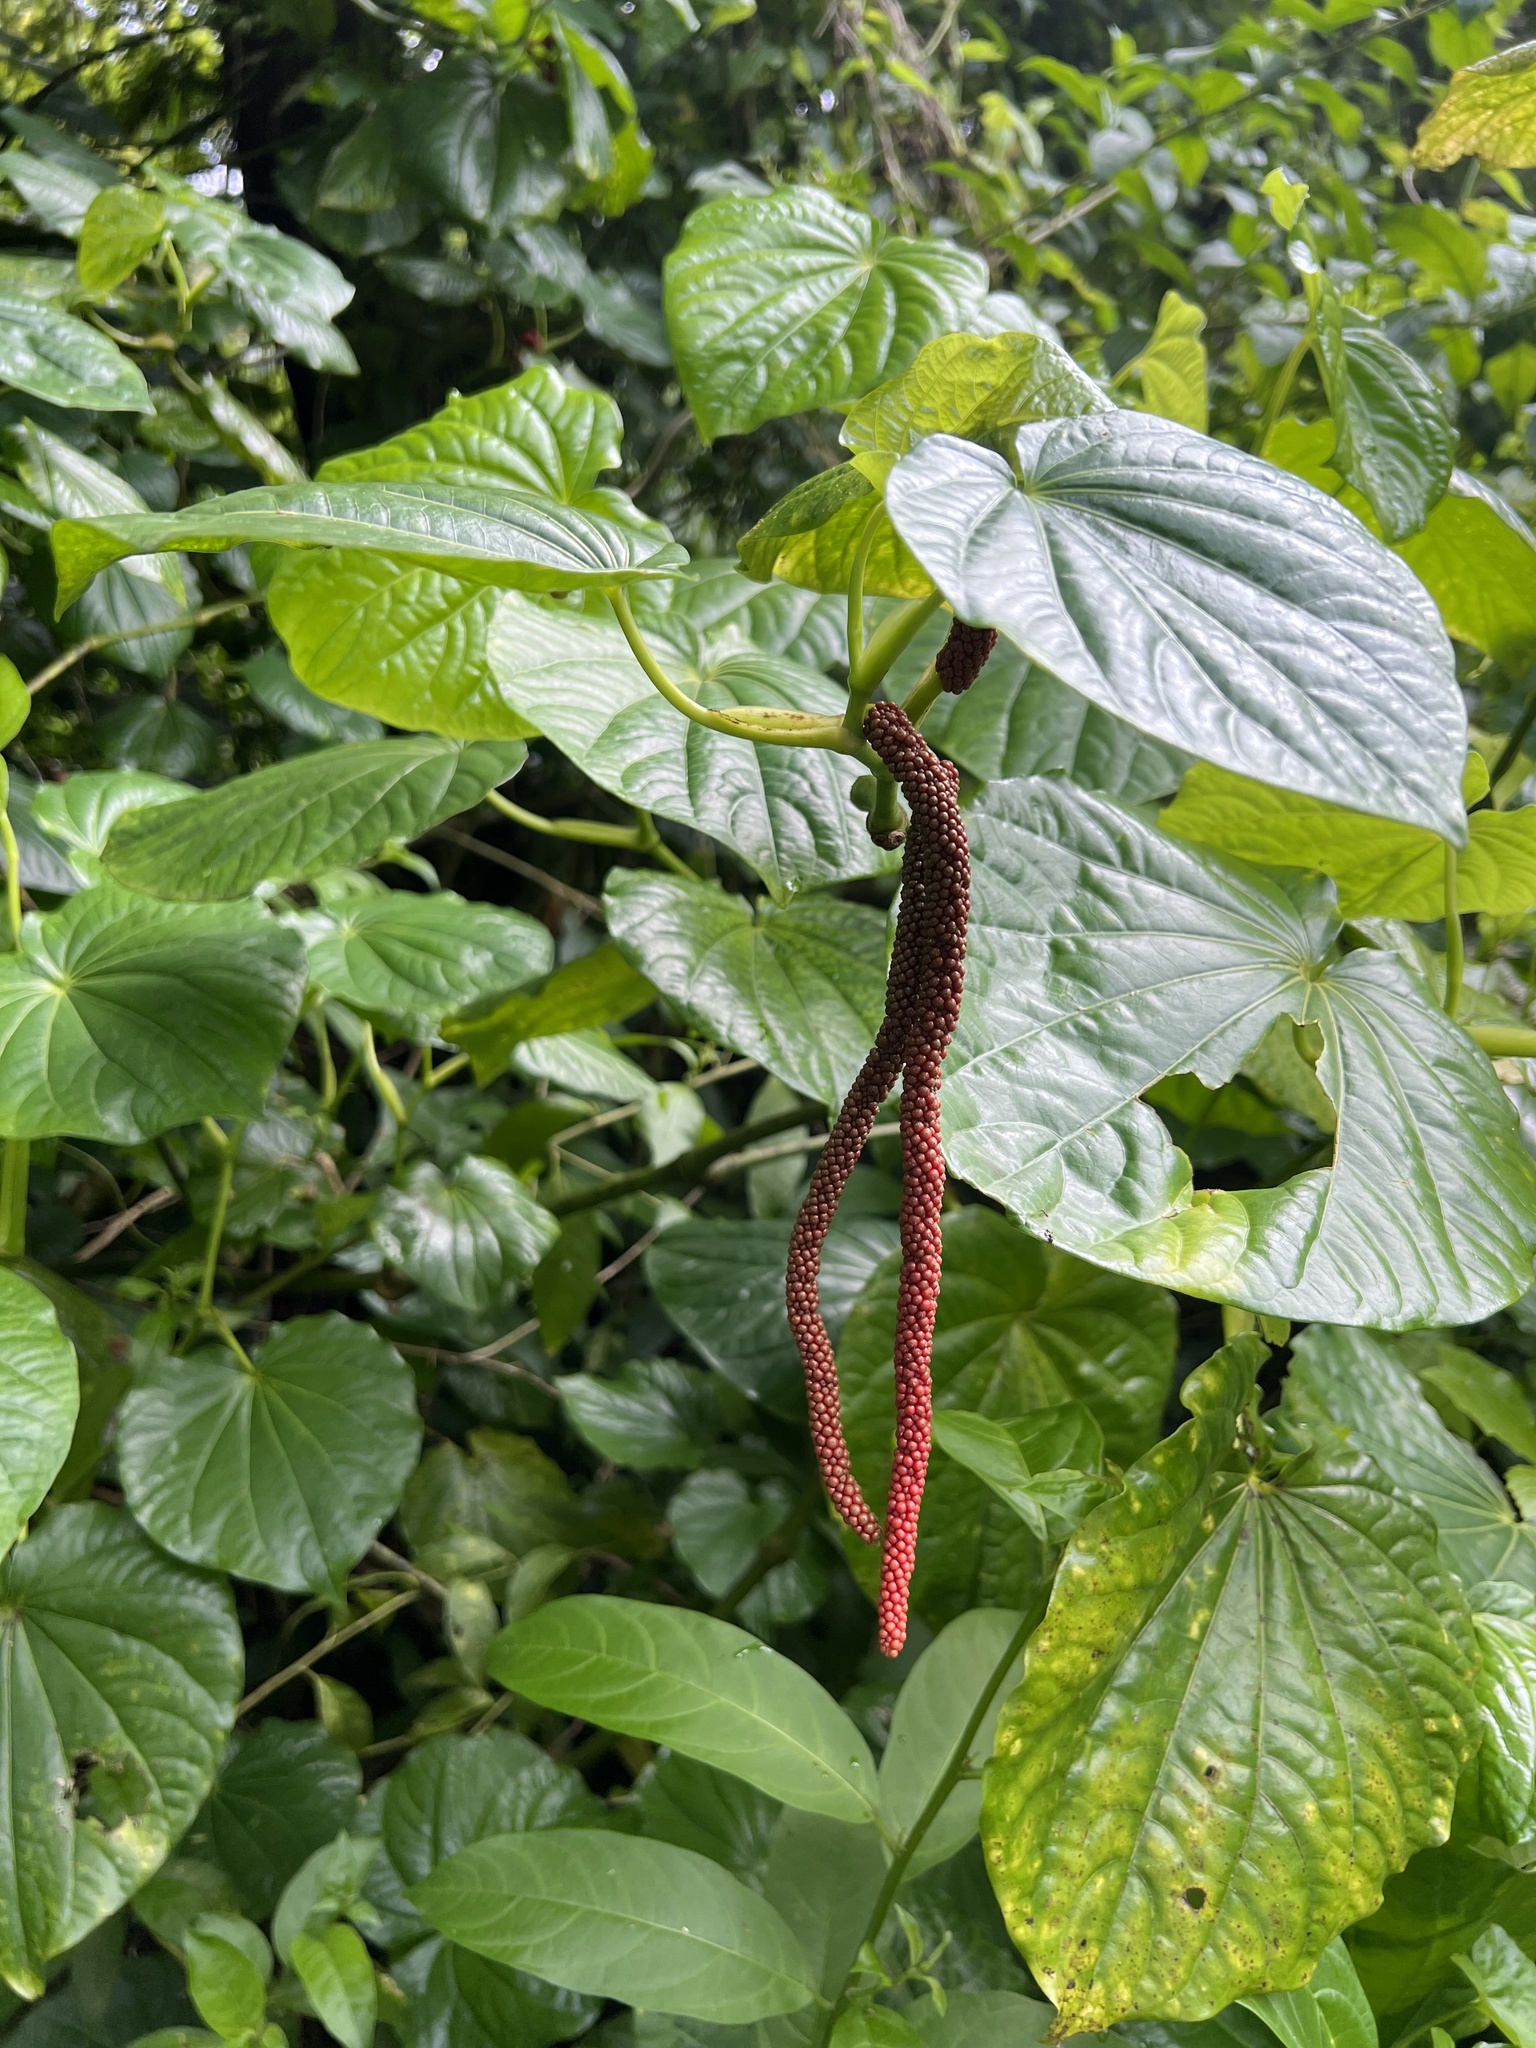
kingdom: Plantae
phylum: Tracheophyta
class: Magnoliopsida
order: Piperales
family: Piperaceae
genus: Piper
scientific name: Piper latifolium
